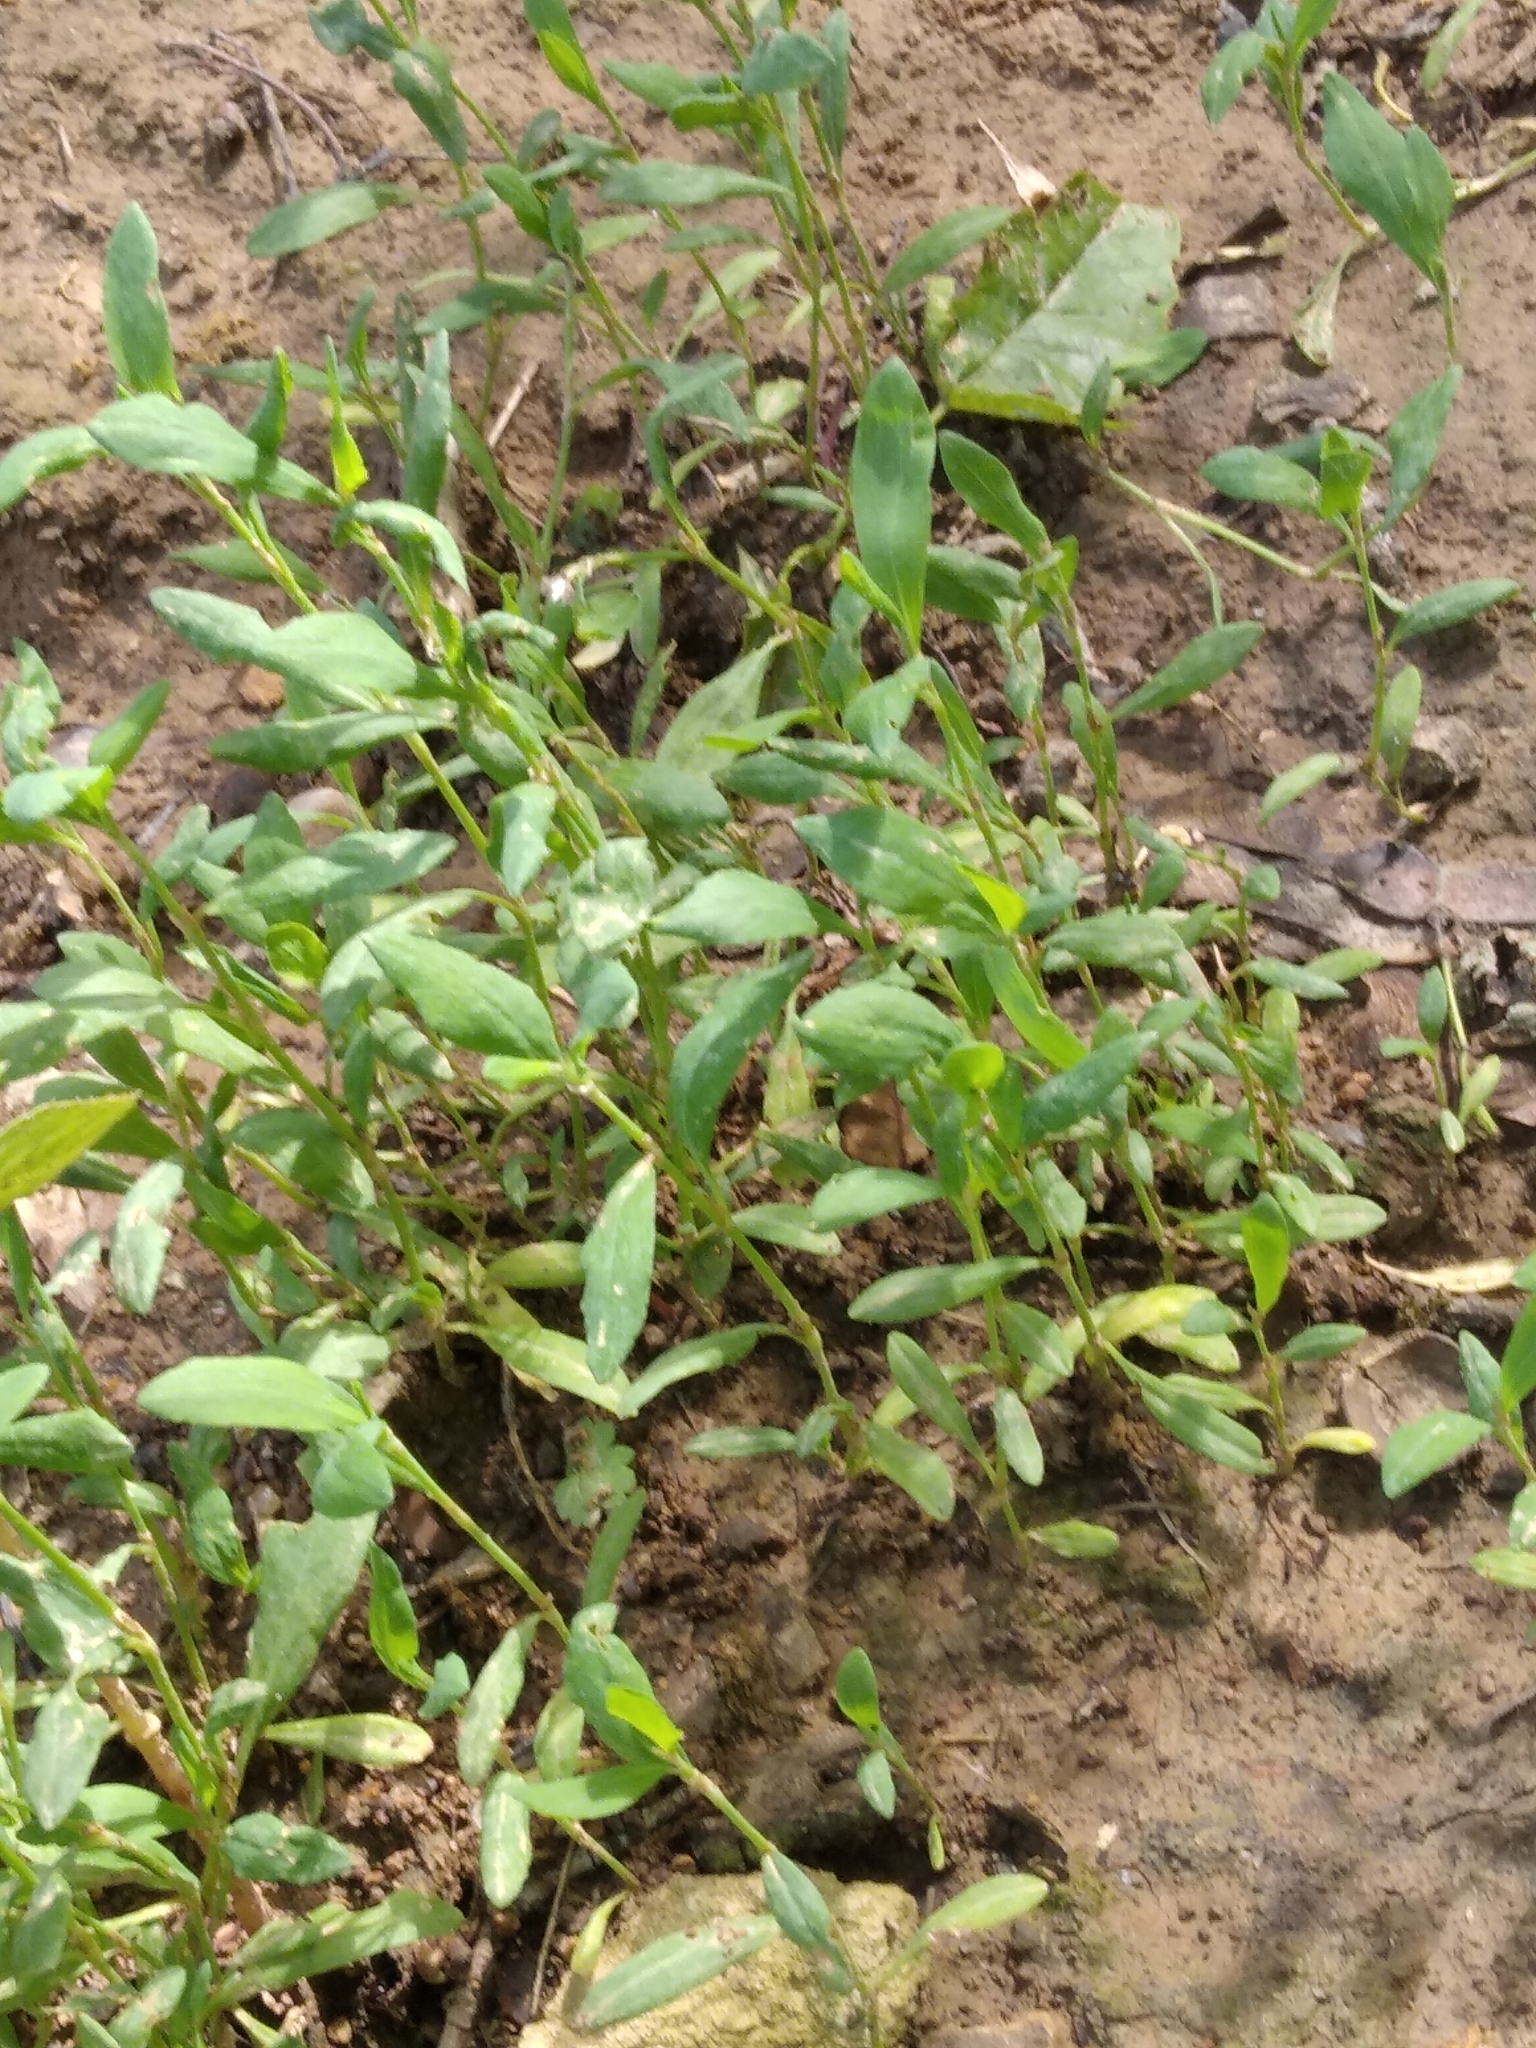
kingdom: Plantae
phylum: Tracheophyta
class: Magnoliopsida
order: Caryophyllales
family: Polygonaceae
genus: Polygonum
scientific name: Polygonum aviculare
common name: Prostrate knotweed
